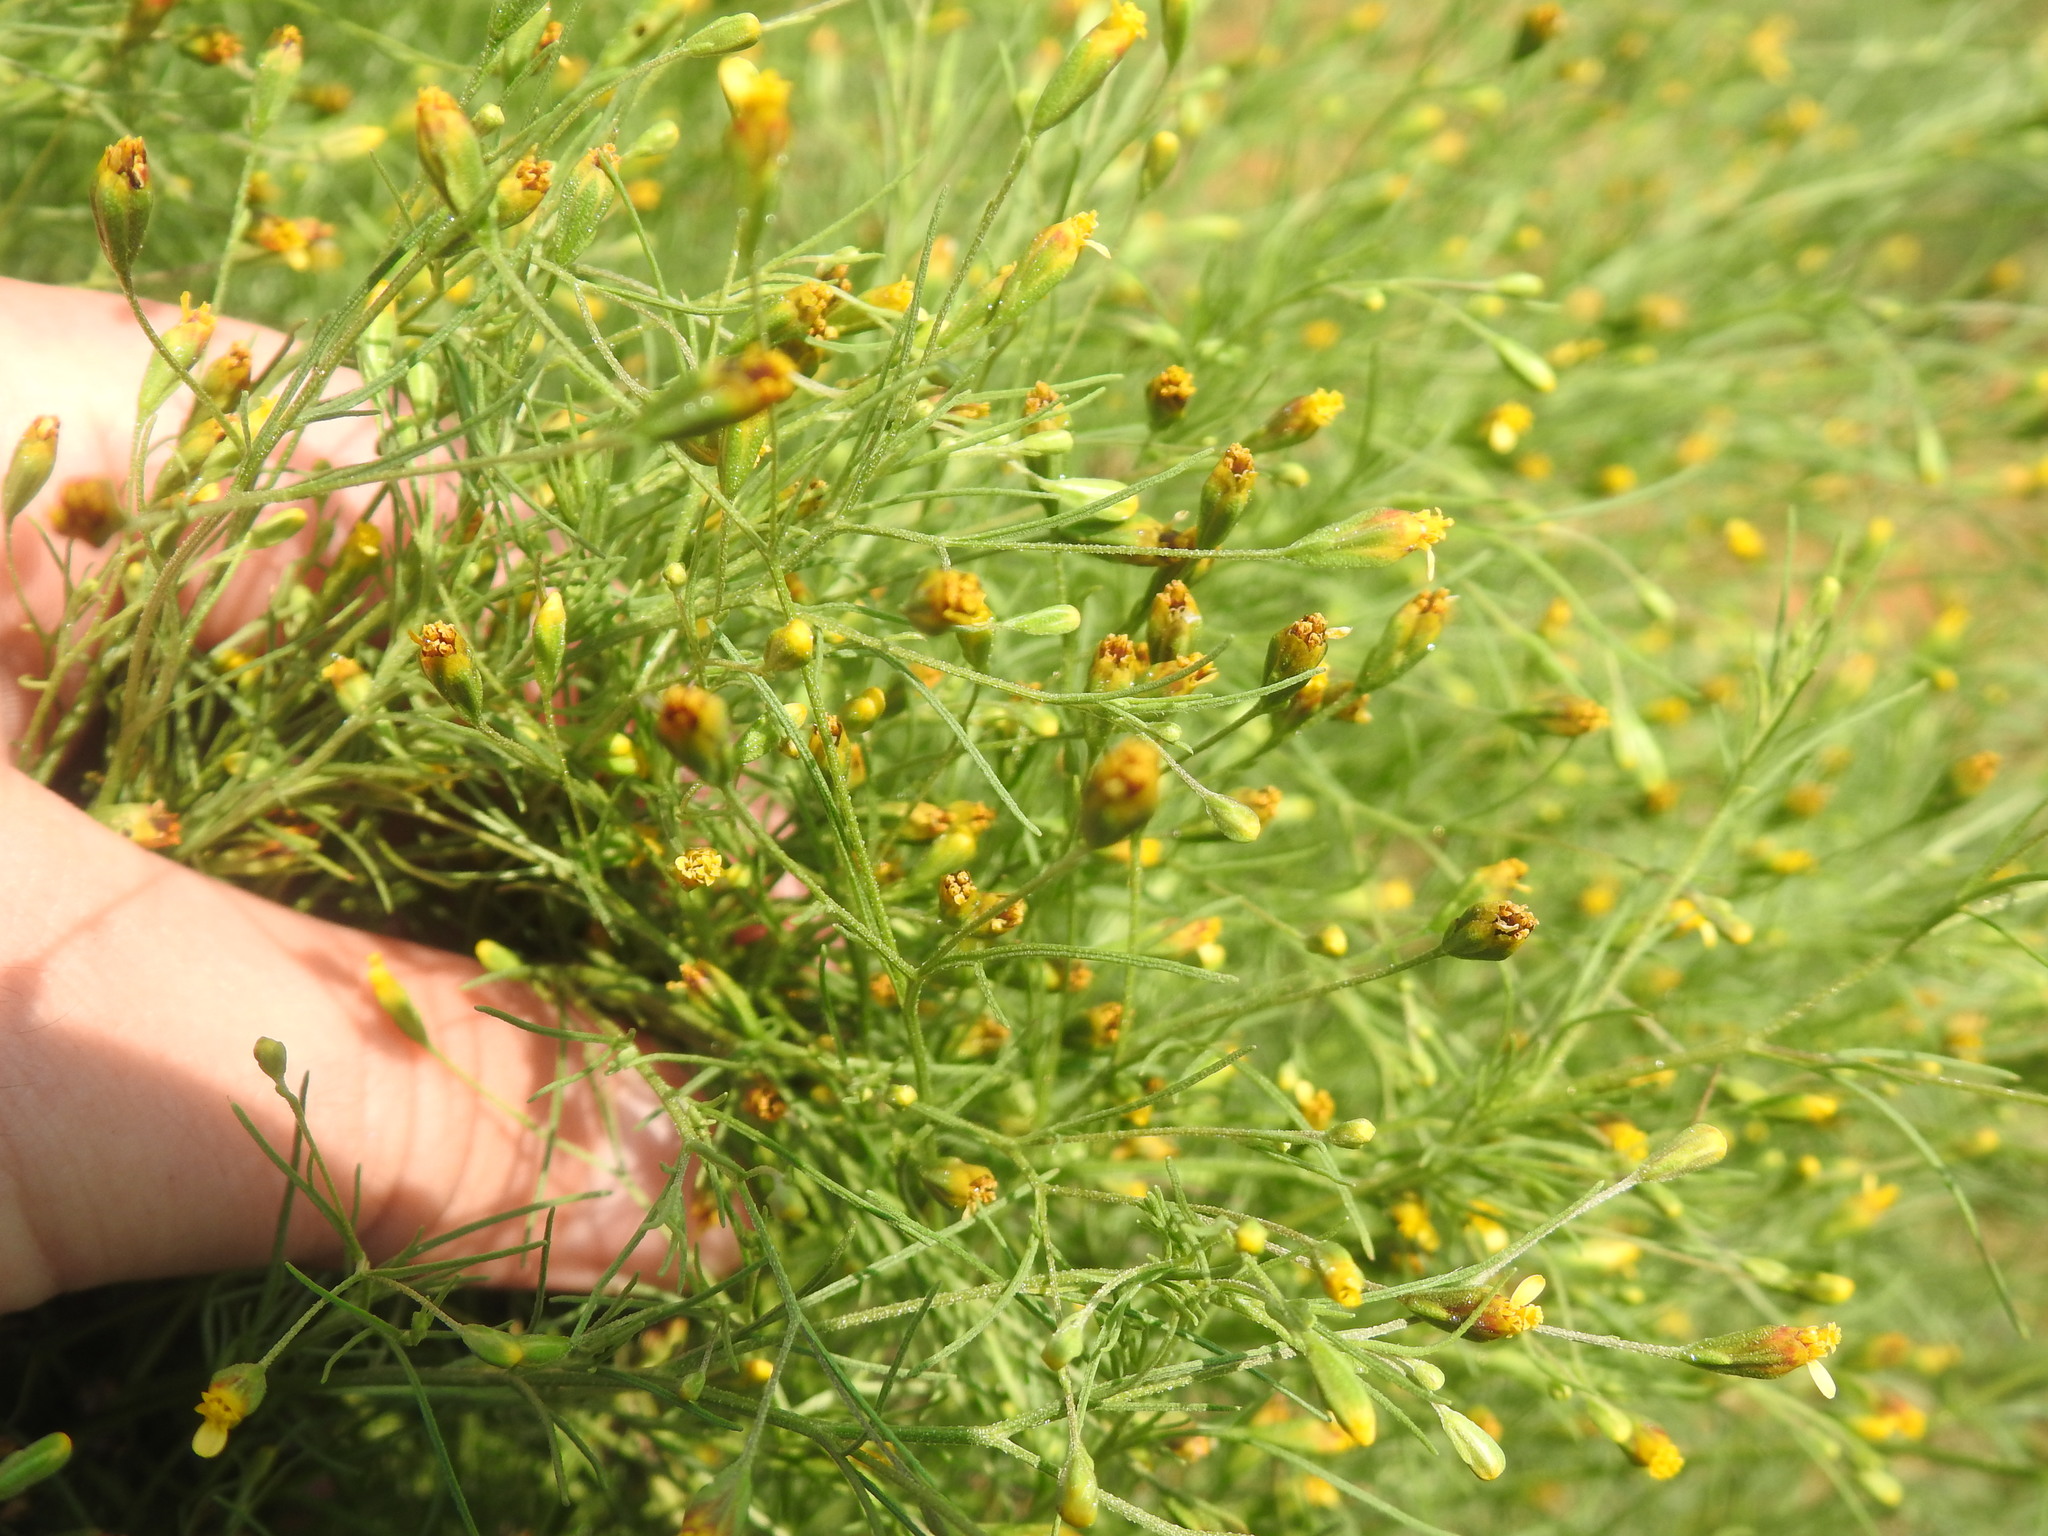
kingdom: Plantae
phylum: Tracheophyta
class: Magnoliopsida
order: Asterales
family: Asteraceae
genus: Schkuhria
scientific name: Schkuhria pinnata
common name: Dwarf marigold
